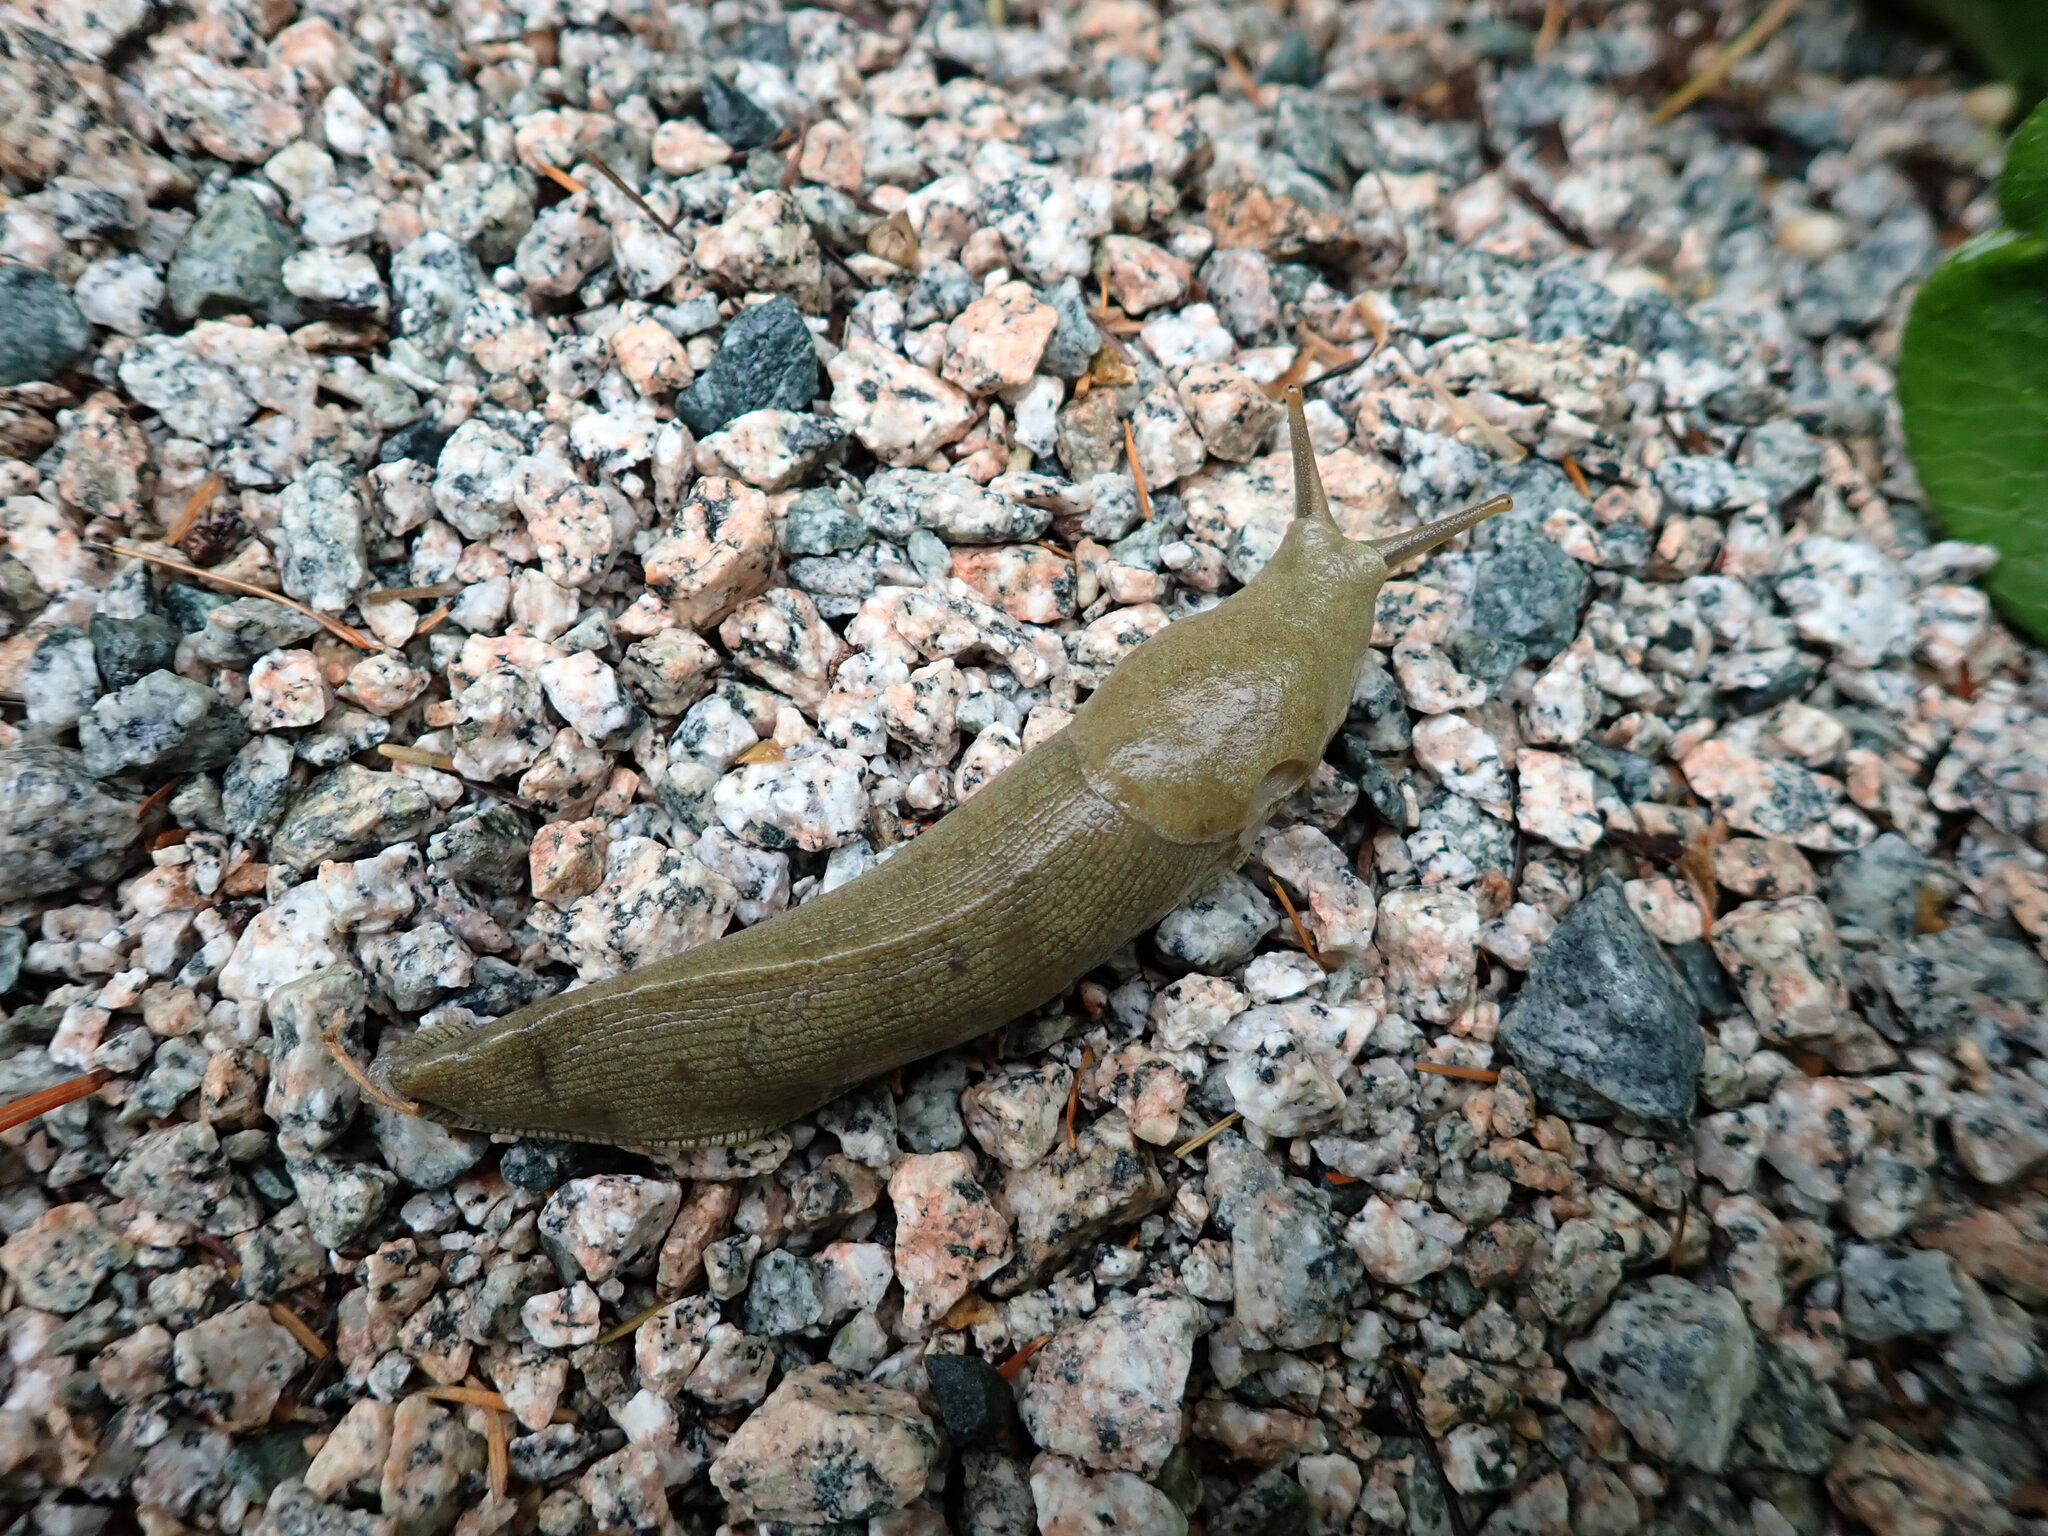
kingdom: Animalia
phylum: Mollusca
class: Gastropoda
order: Stylommatophora
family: Ariolimacidae
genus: Ariolimax
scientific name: Ariolimax columbianus
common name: Pacific banana slug
